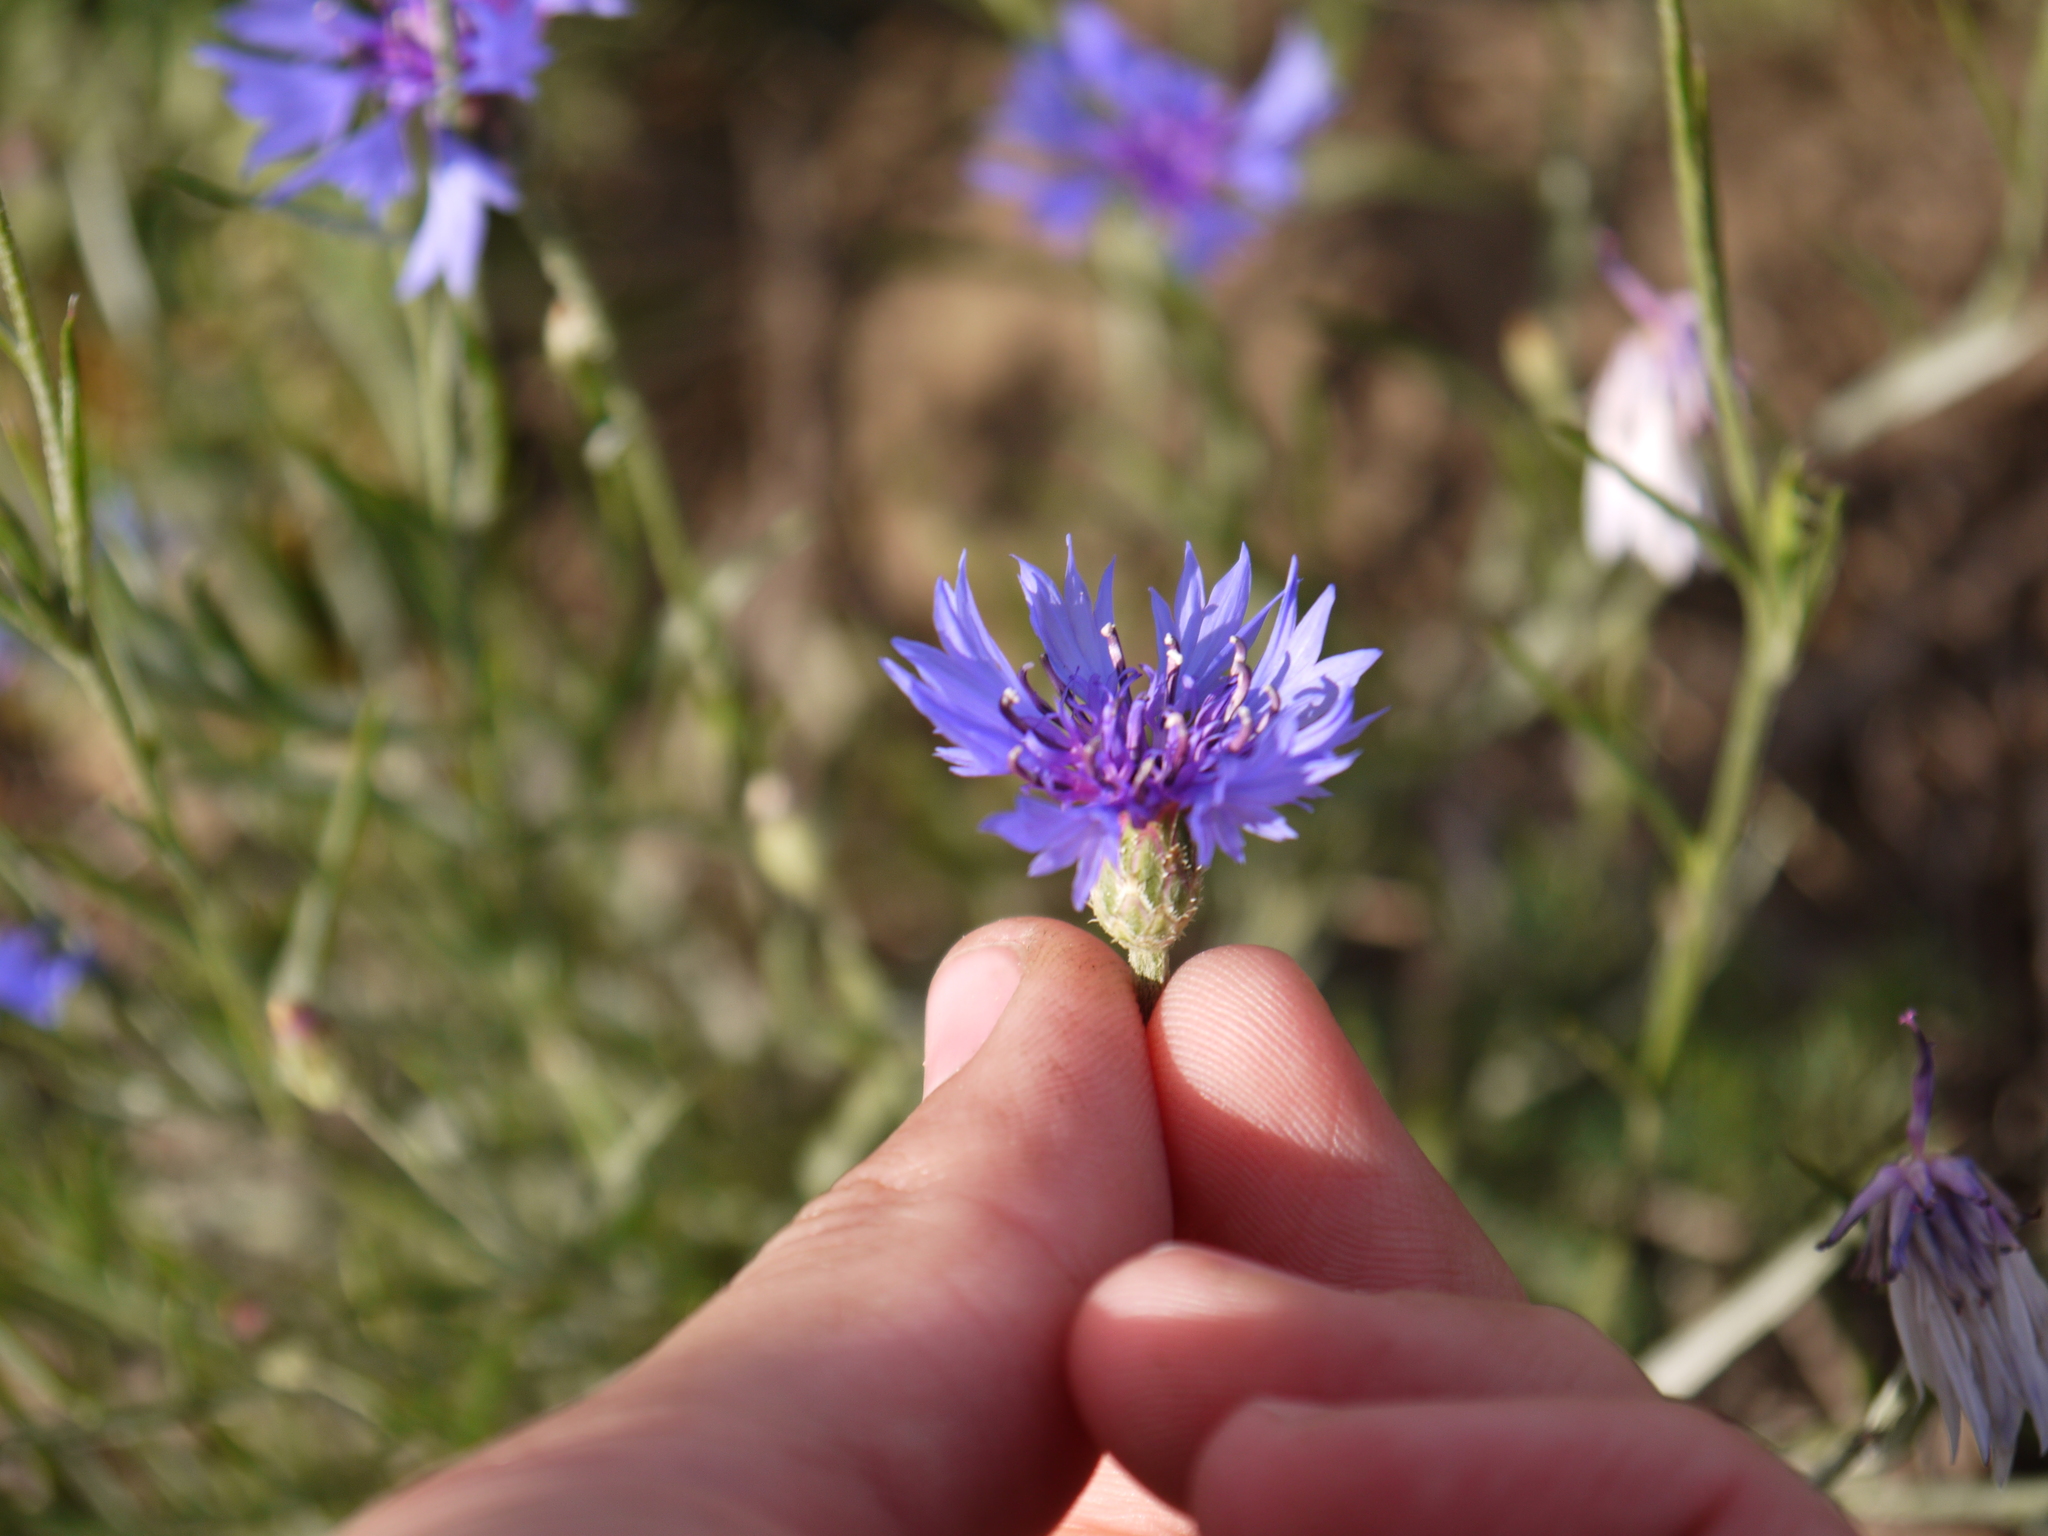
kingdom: Plantae
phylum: Tracheophyta
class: Magnoliopsida
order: Asterales
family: Asteraceae
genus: Centaurea
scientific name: Centaurea cyanus
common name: Cornflower
